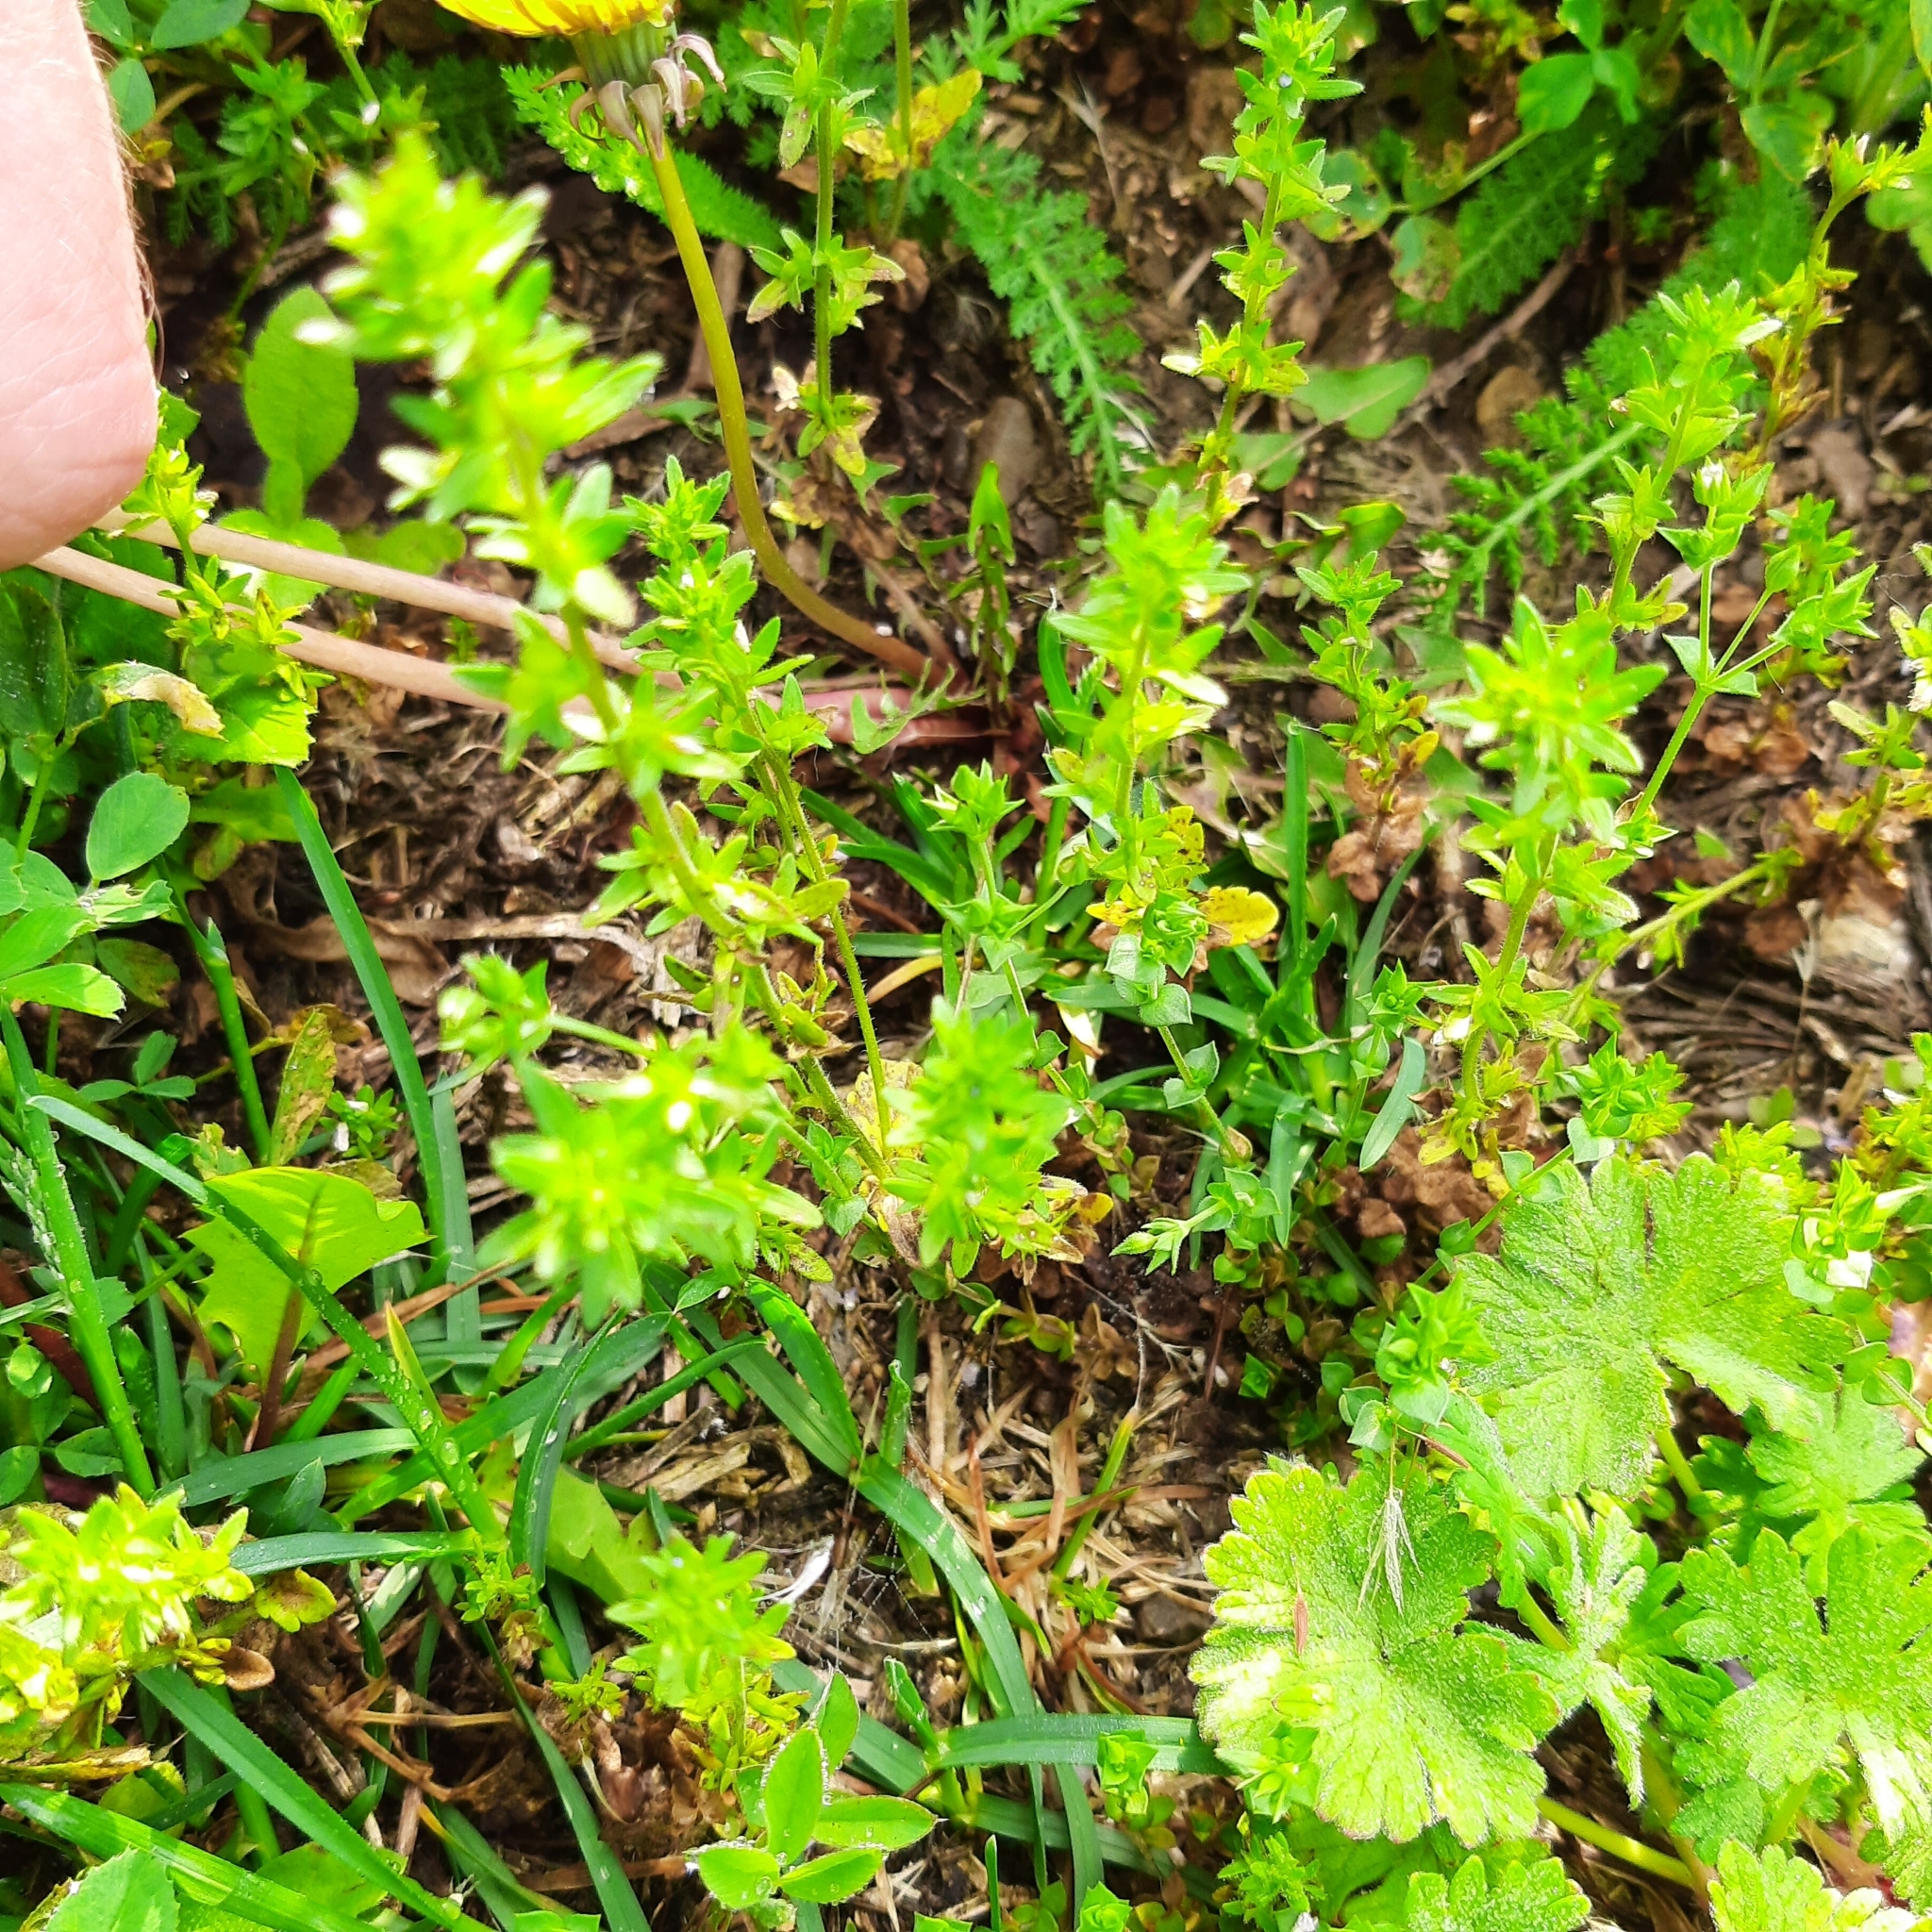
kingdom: Plantae
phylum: Tracheophyta
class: Magnoliopsida
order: Lamiales
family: Plantaginaceae
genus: Veronica
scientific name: Veronica arvensis
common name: Corn speedwell
